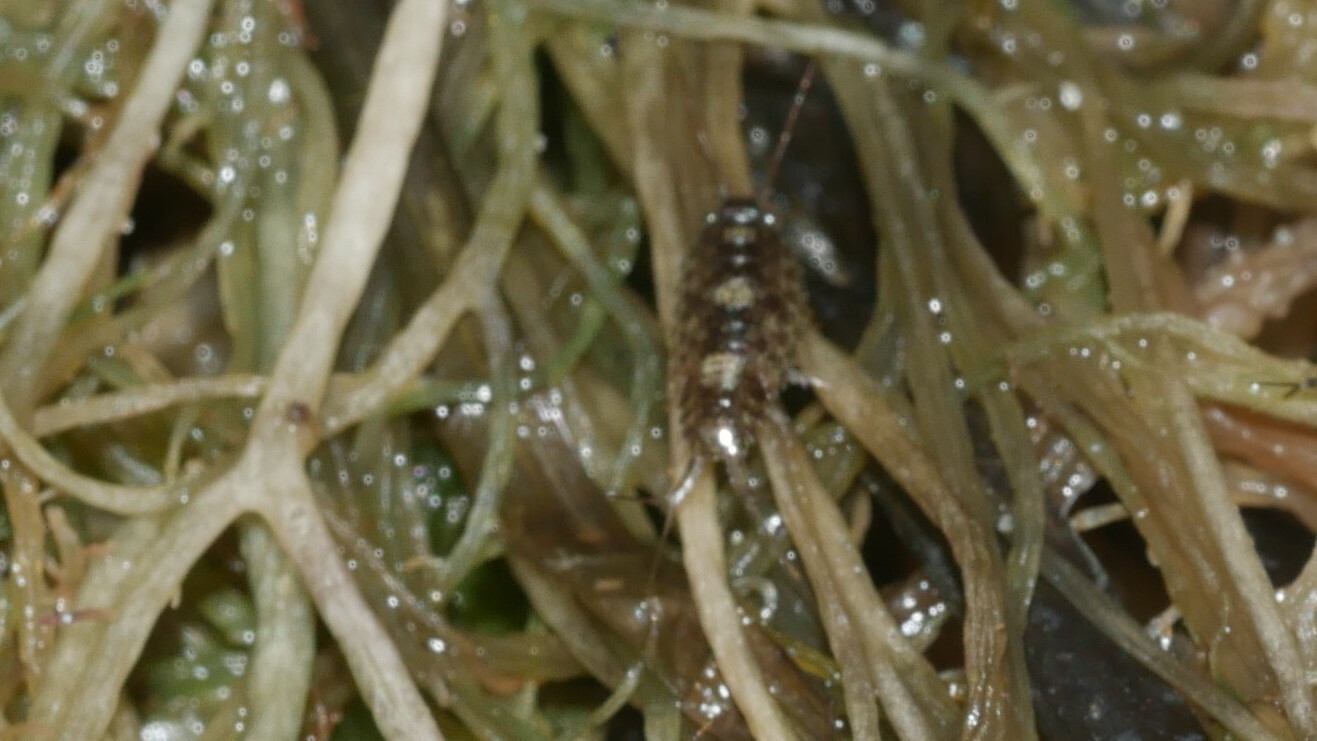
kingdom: Animalia
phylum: Arthropoda
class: Malacostraca
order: Isopoda
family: Ligiidae
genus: Ligia
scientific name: Ligia exotica
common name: Wharf roach
